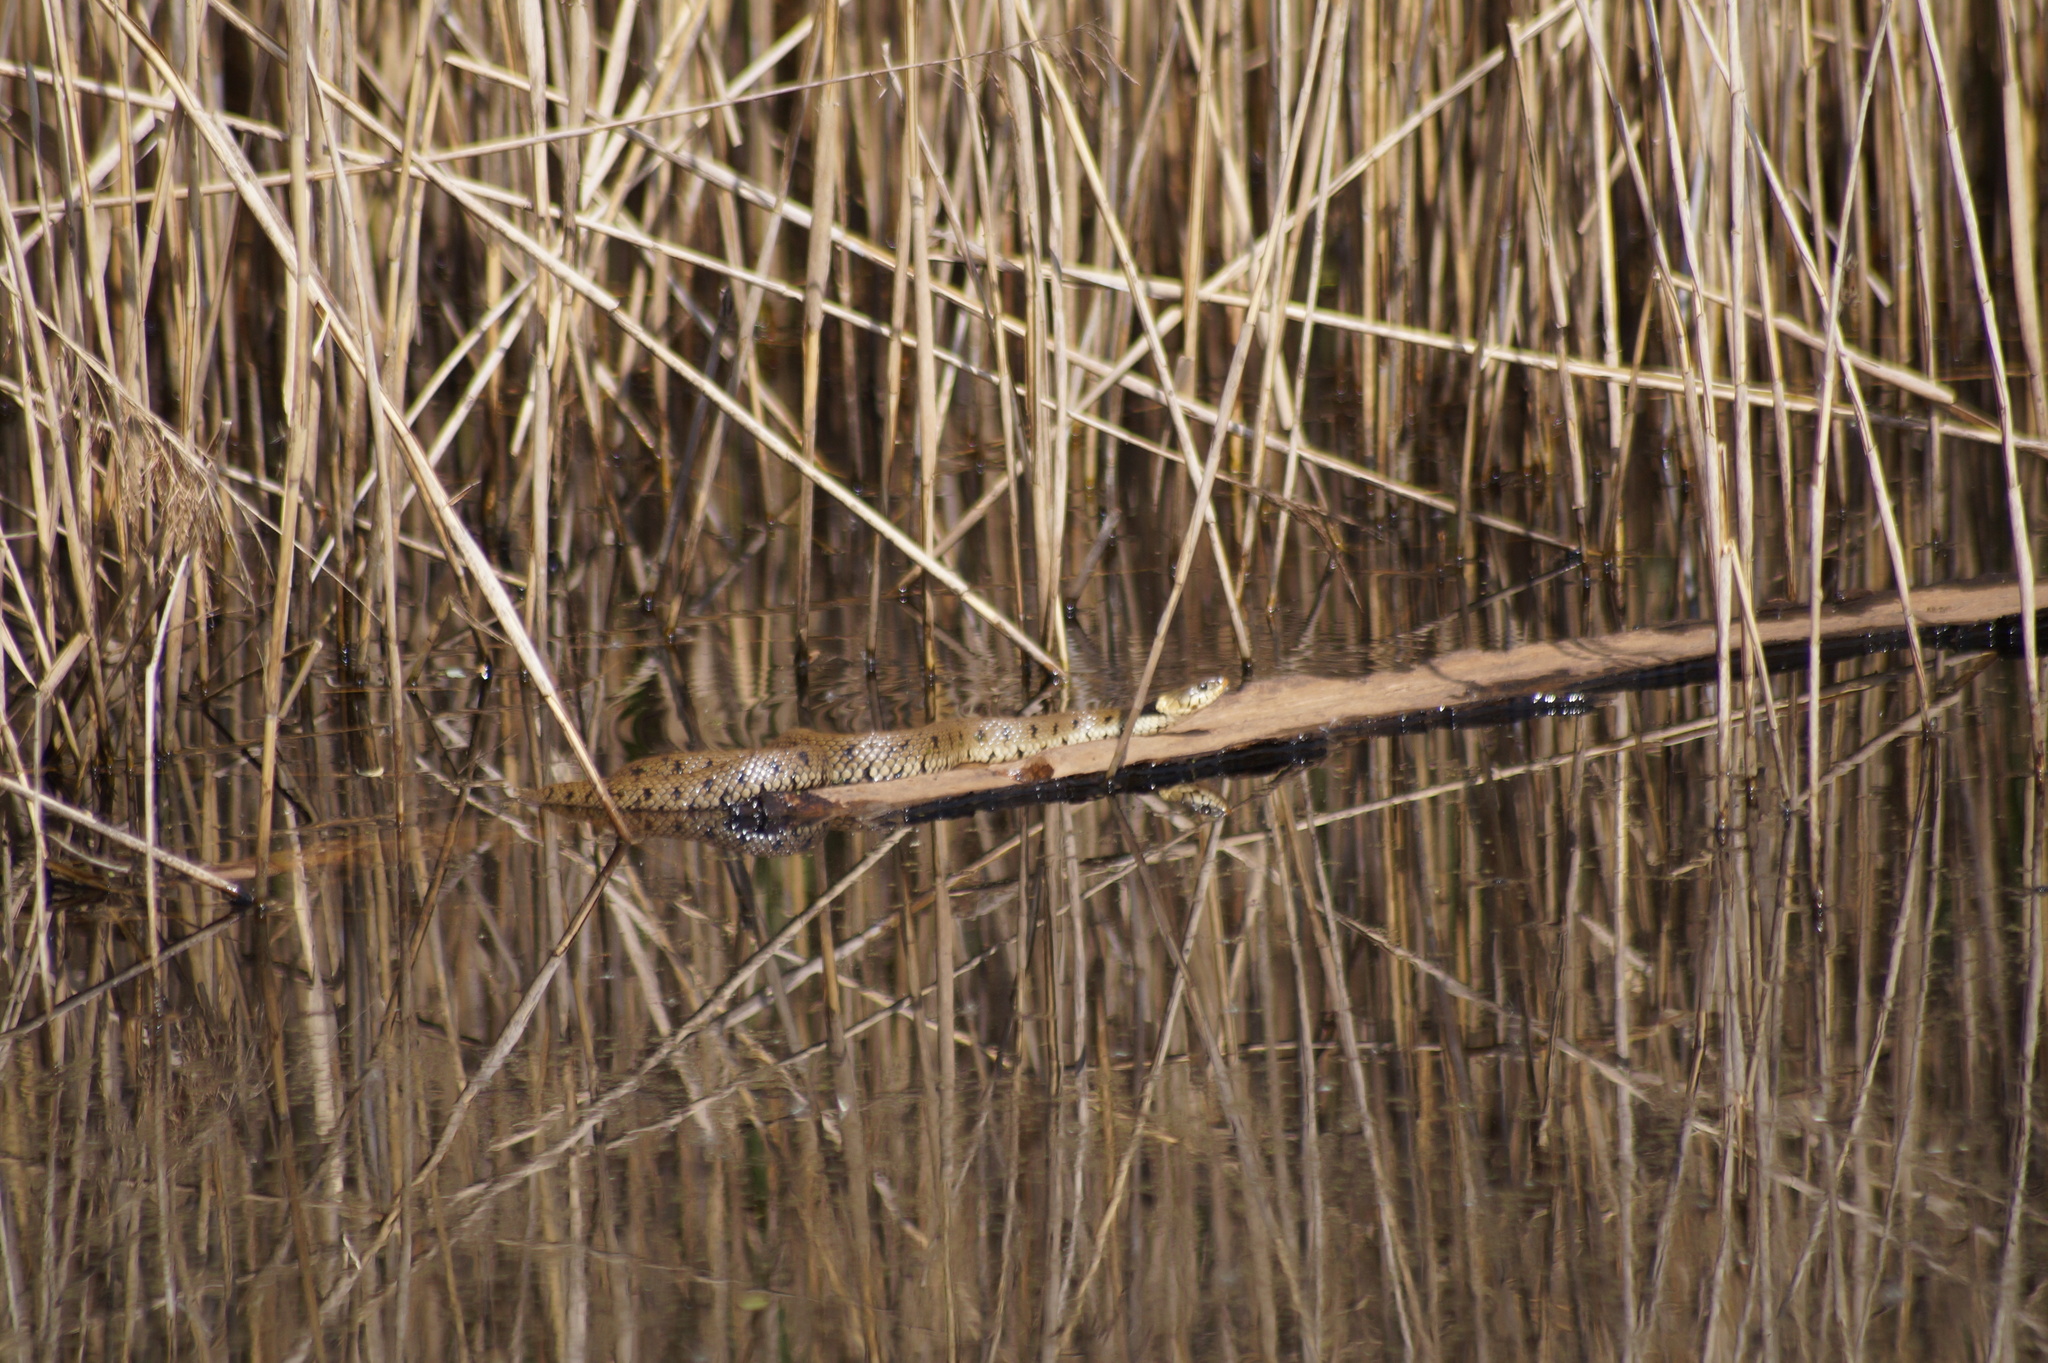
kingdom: Animalia
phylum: Chordata
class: Squamata
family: Colubridae
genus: Natrix
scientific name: Natrix helvetica
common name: Banded grass snake
